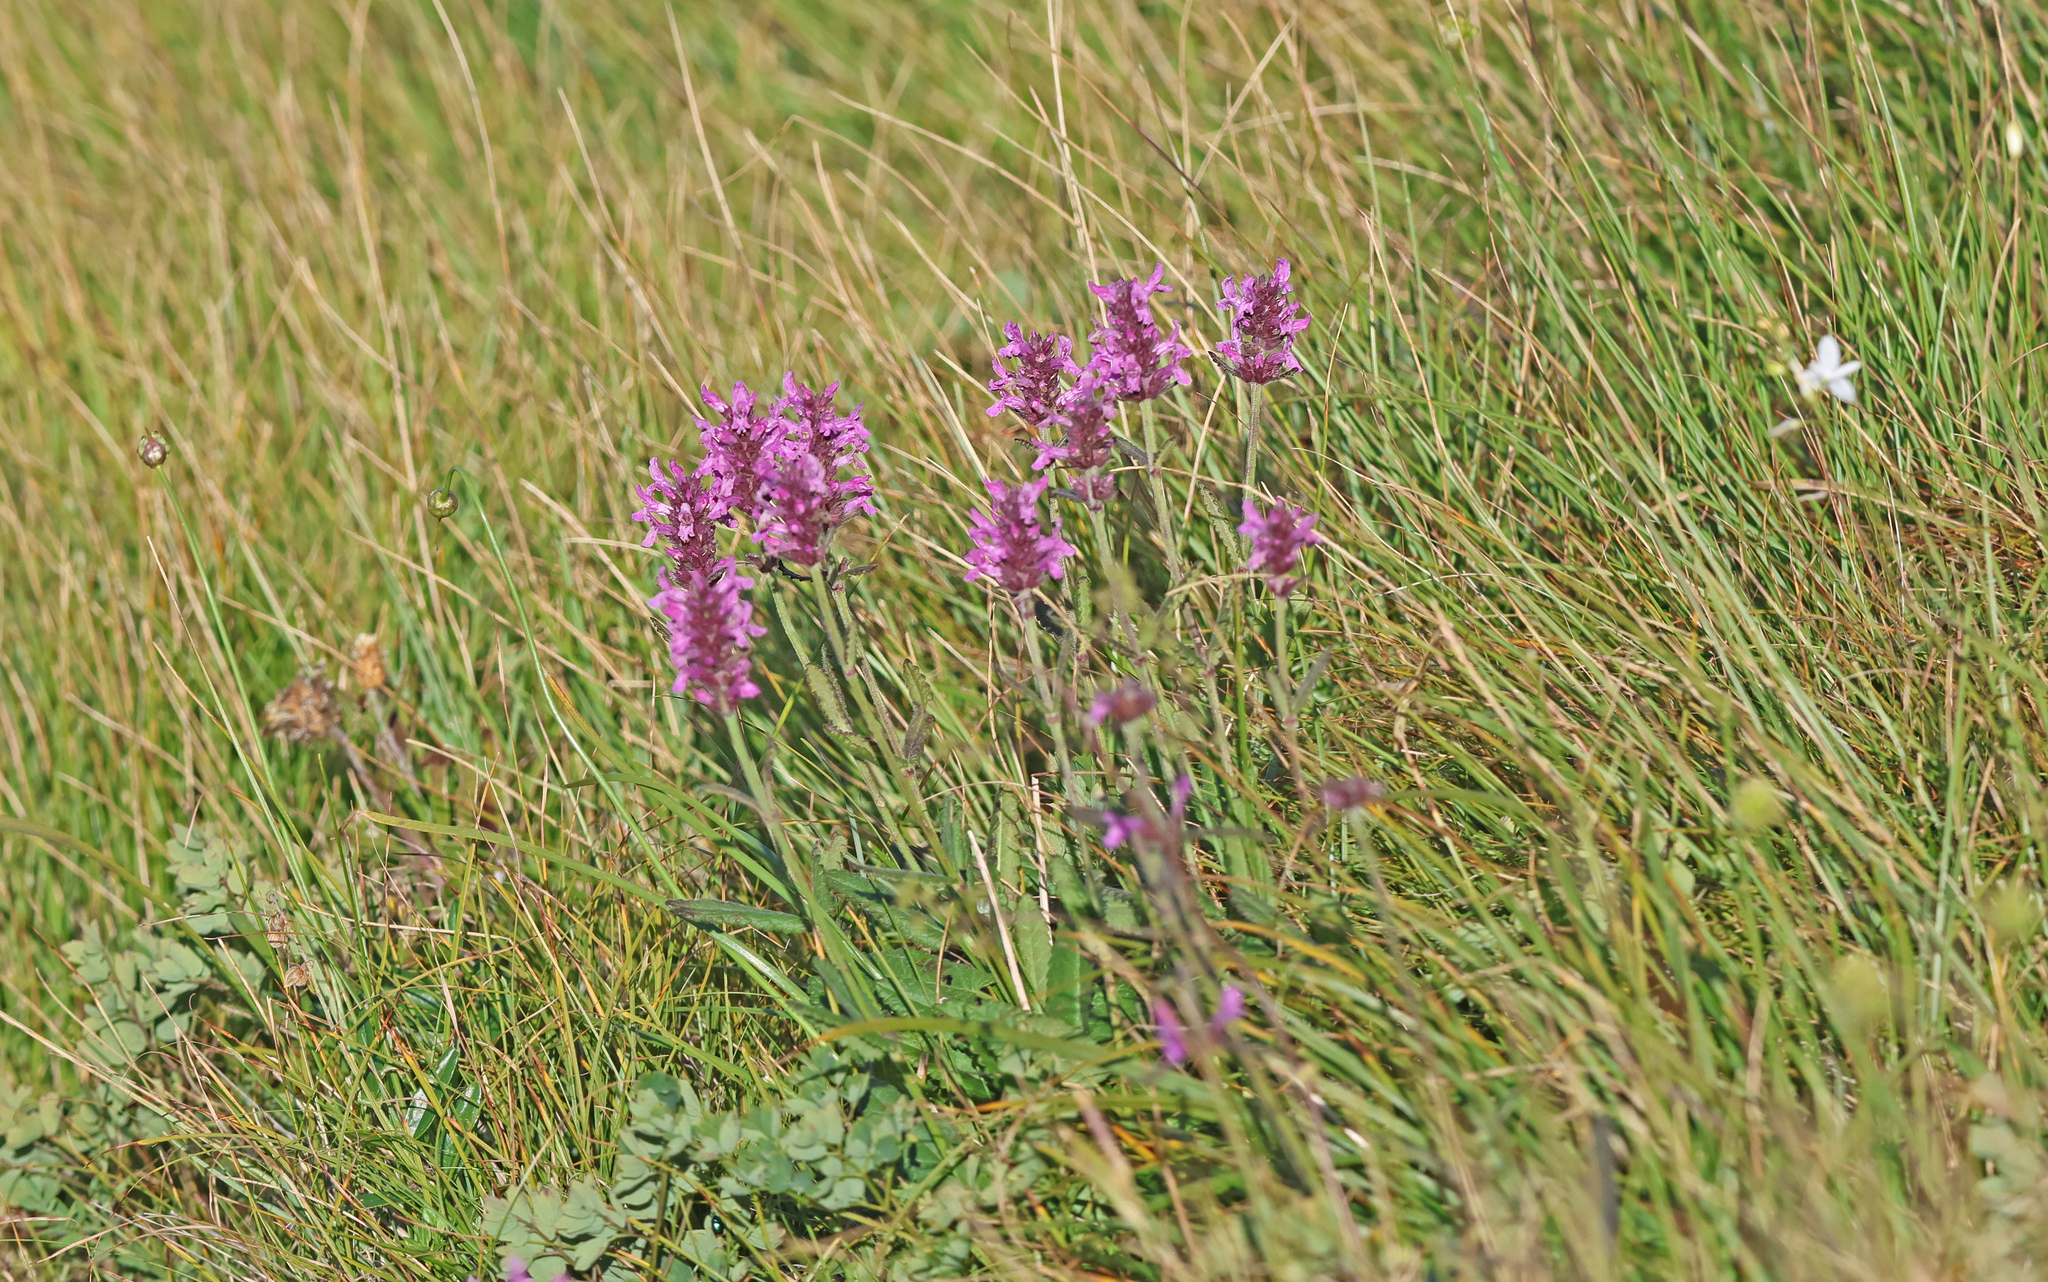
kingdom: Plantae
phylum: Tracheophyta
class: Magnoliopsida
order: Lamiales
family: Lamiaceae
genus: Betonica
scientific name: Betonica officinalis
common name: Bishop's-wort
